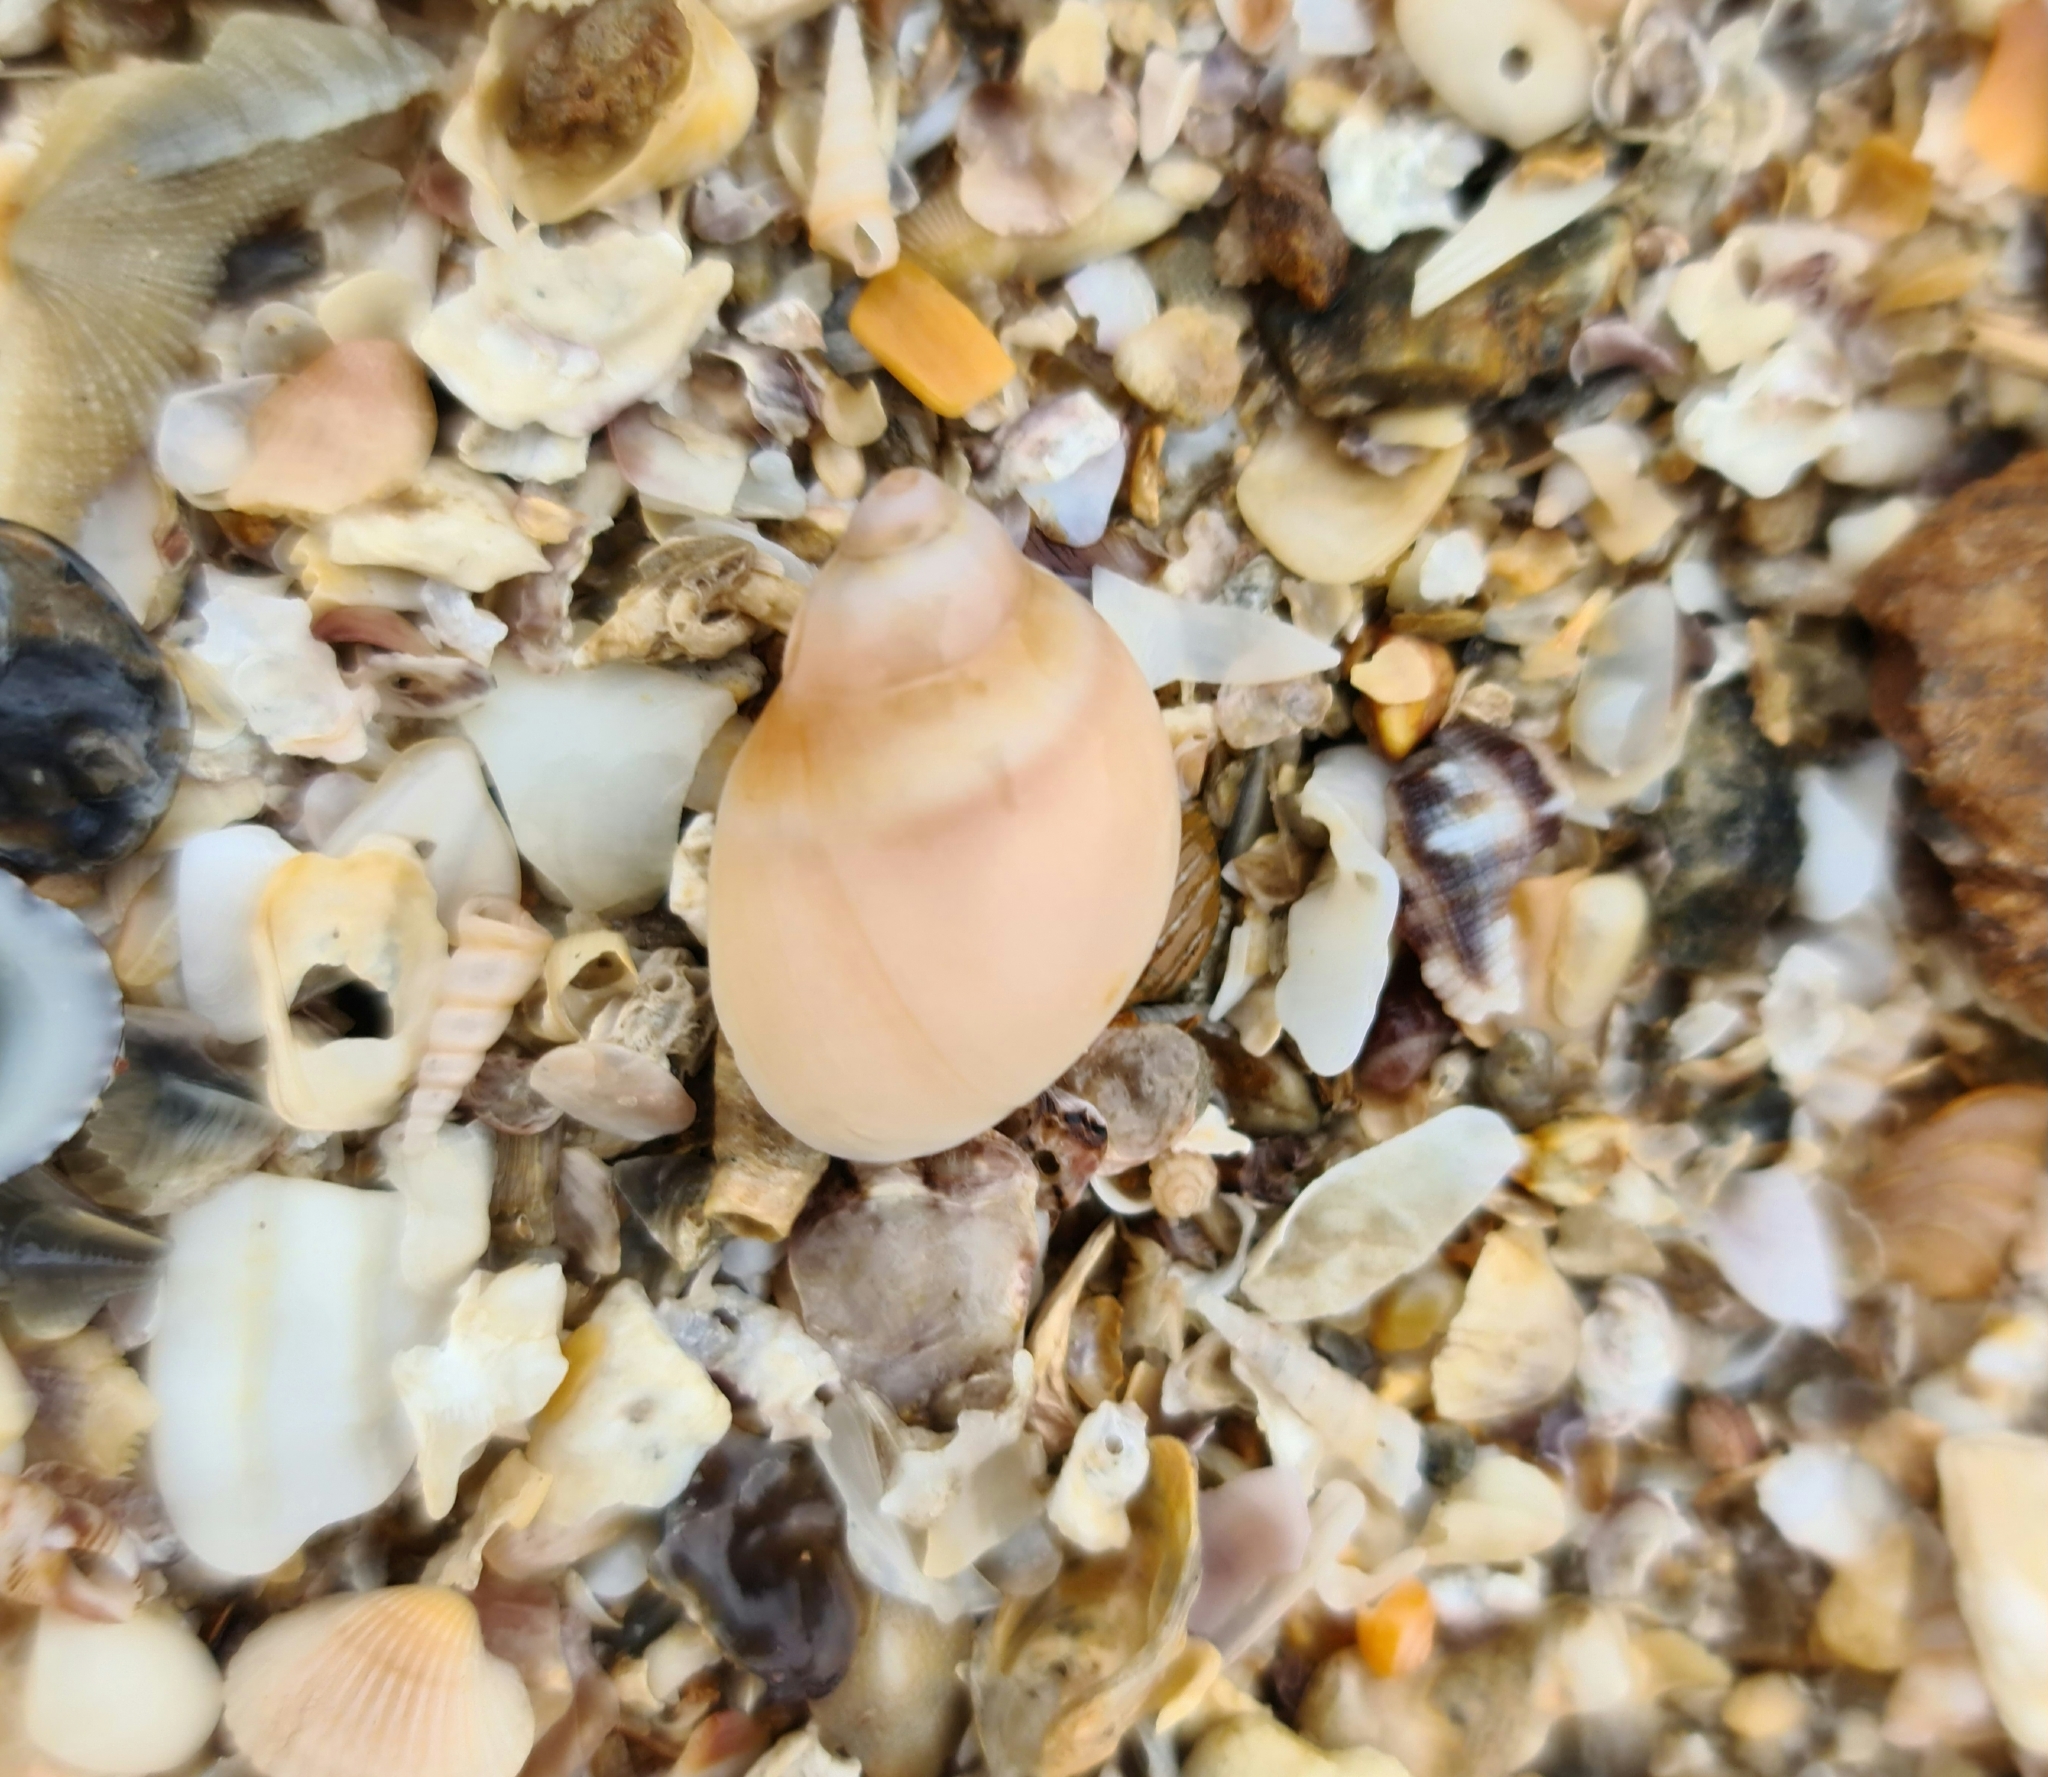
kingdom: Animalia
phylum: Mollusca
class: Gastropoda
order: Littorinimorpha
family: Naticidae
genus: Conuber
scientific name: Conuber conicum
